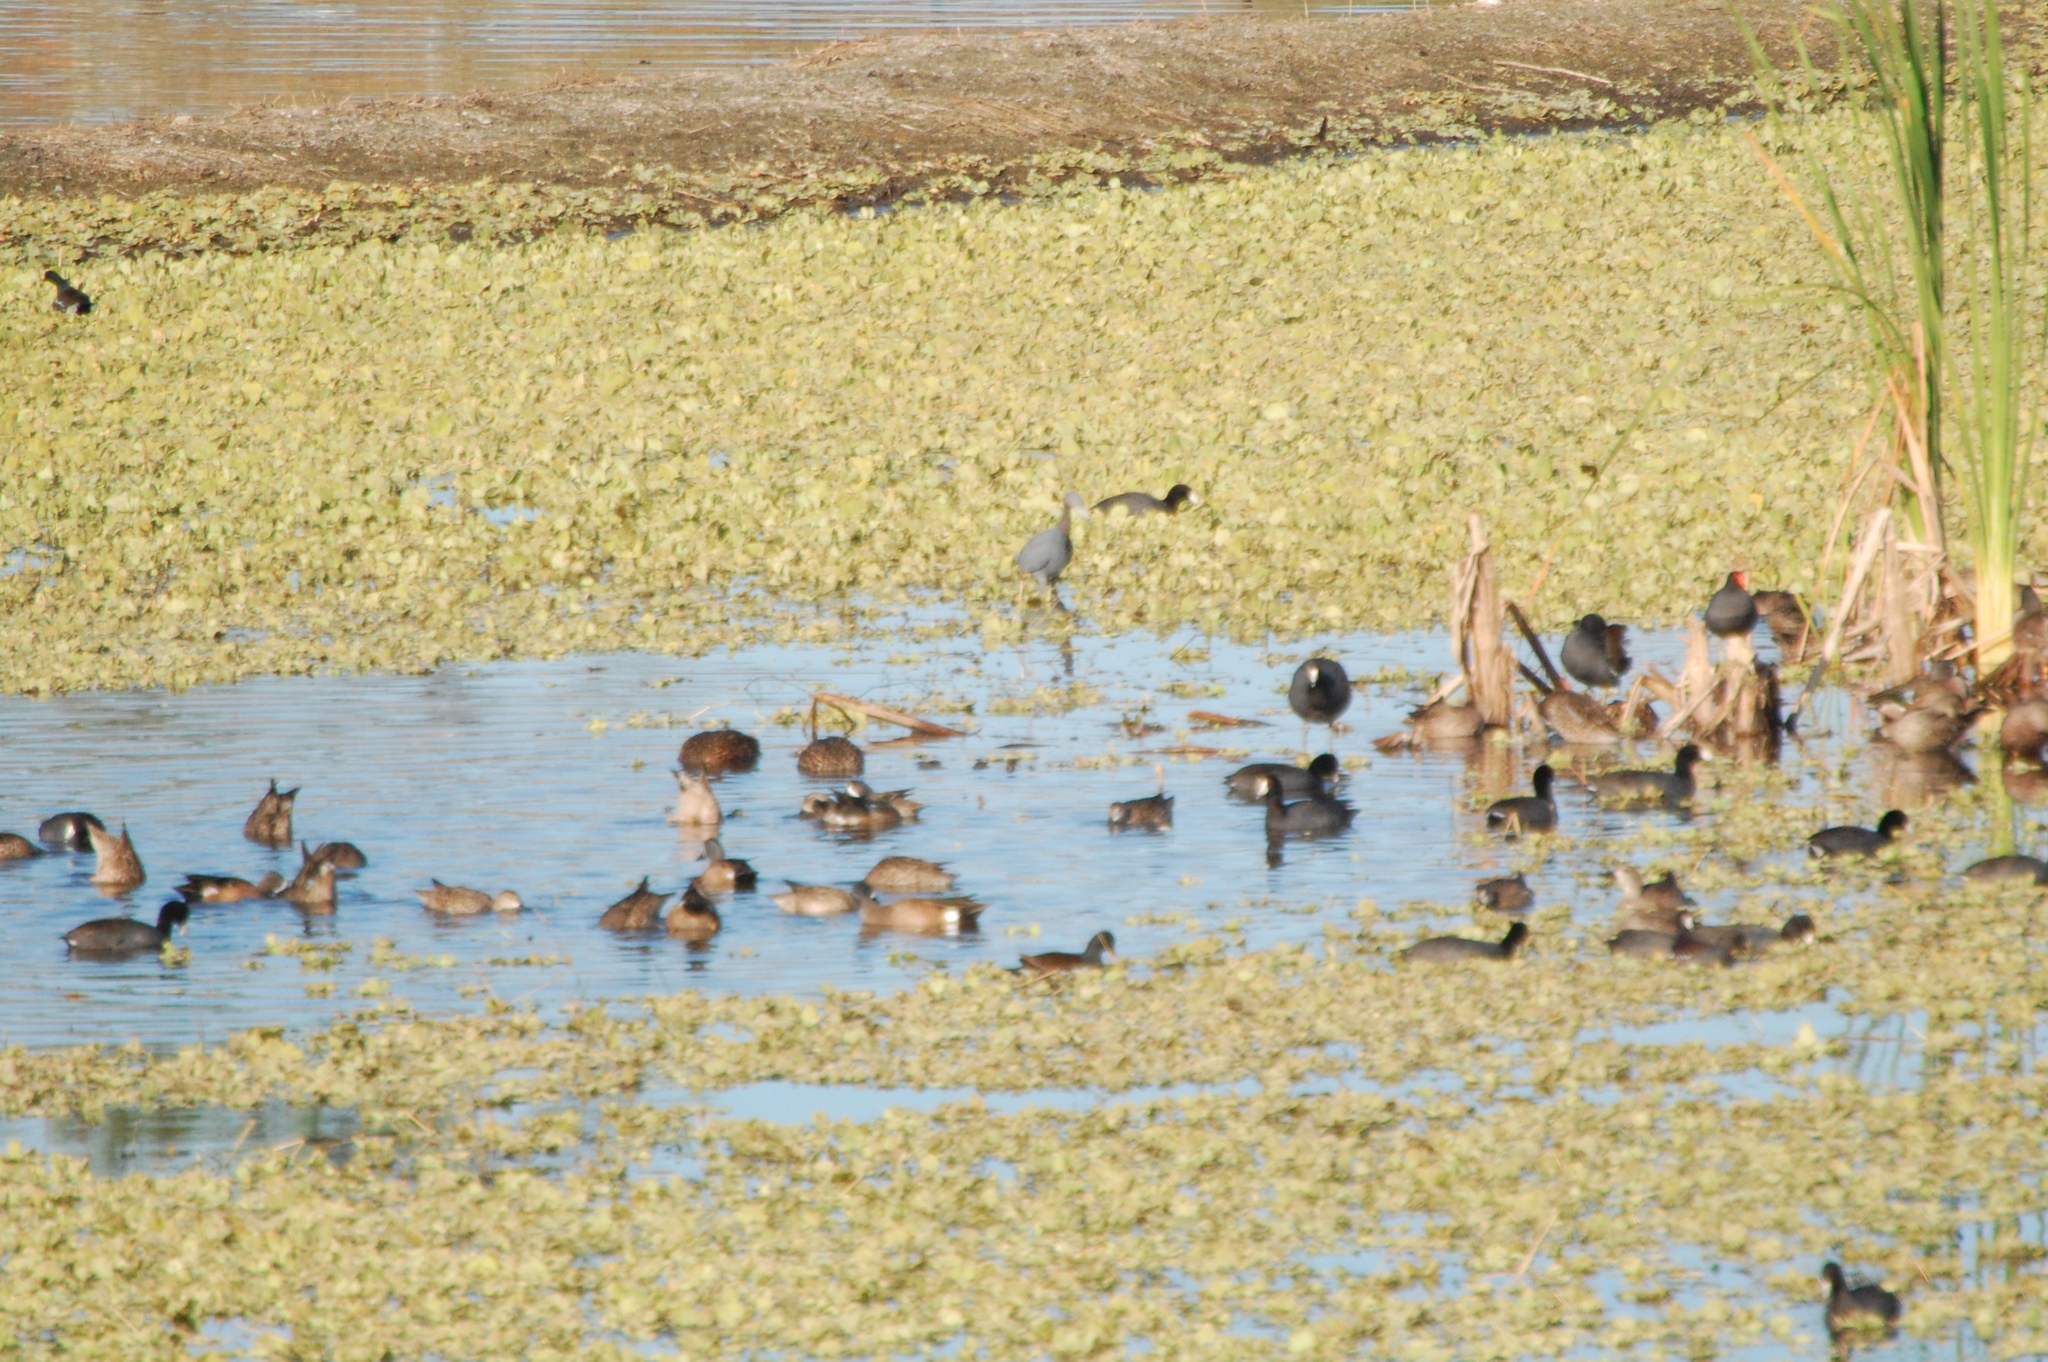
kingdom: Animalia
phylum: Chordata
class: Aves
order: Gruiformes
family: Rallidae
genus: Gallinula
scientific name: Gallinula chloropus
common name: Common moorhen
